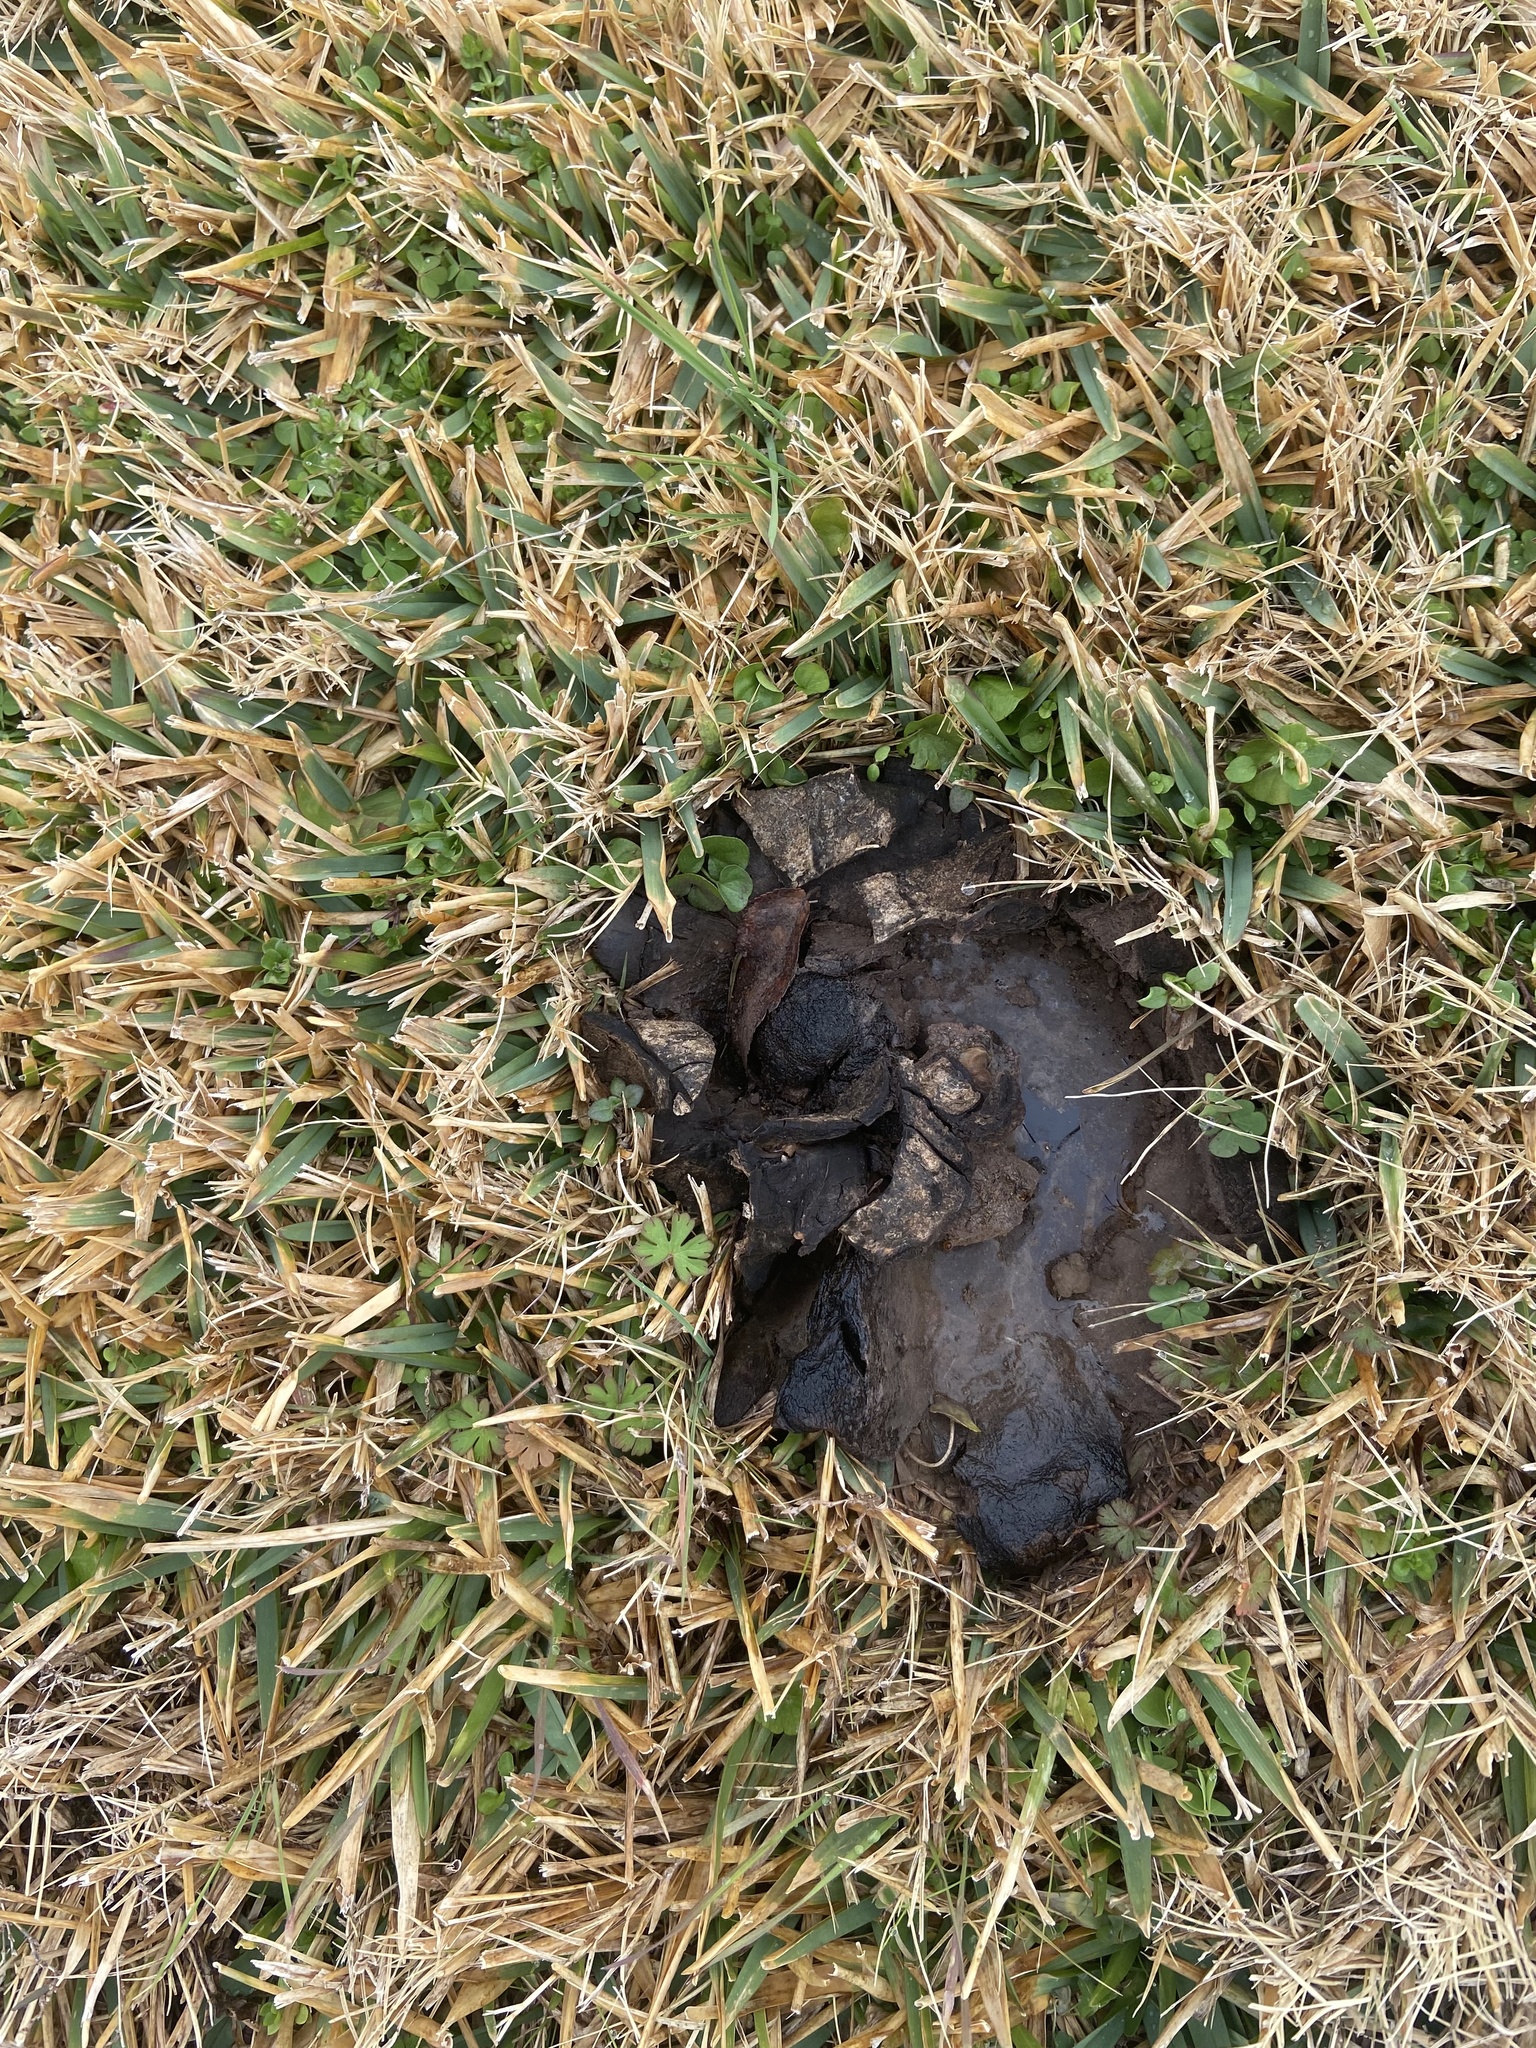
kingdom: Fungi
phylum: Basidiomycota
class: Agaricomycetes
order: Boletales
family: Sclerodermataceae
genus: Scleroderma
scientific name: Scleroderma polyrhizum
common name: Many-rooted earthball
